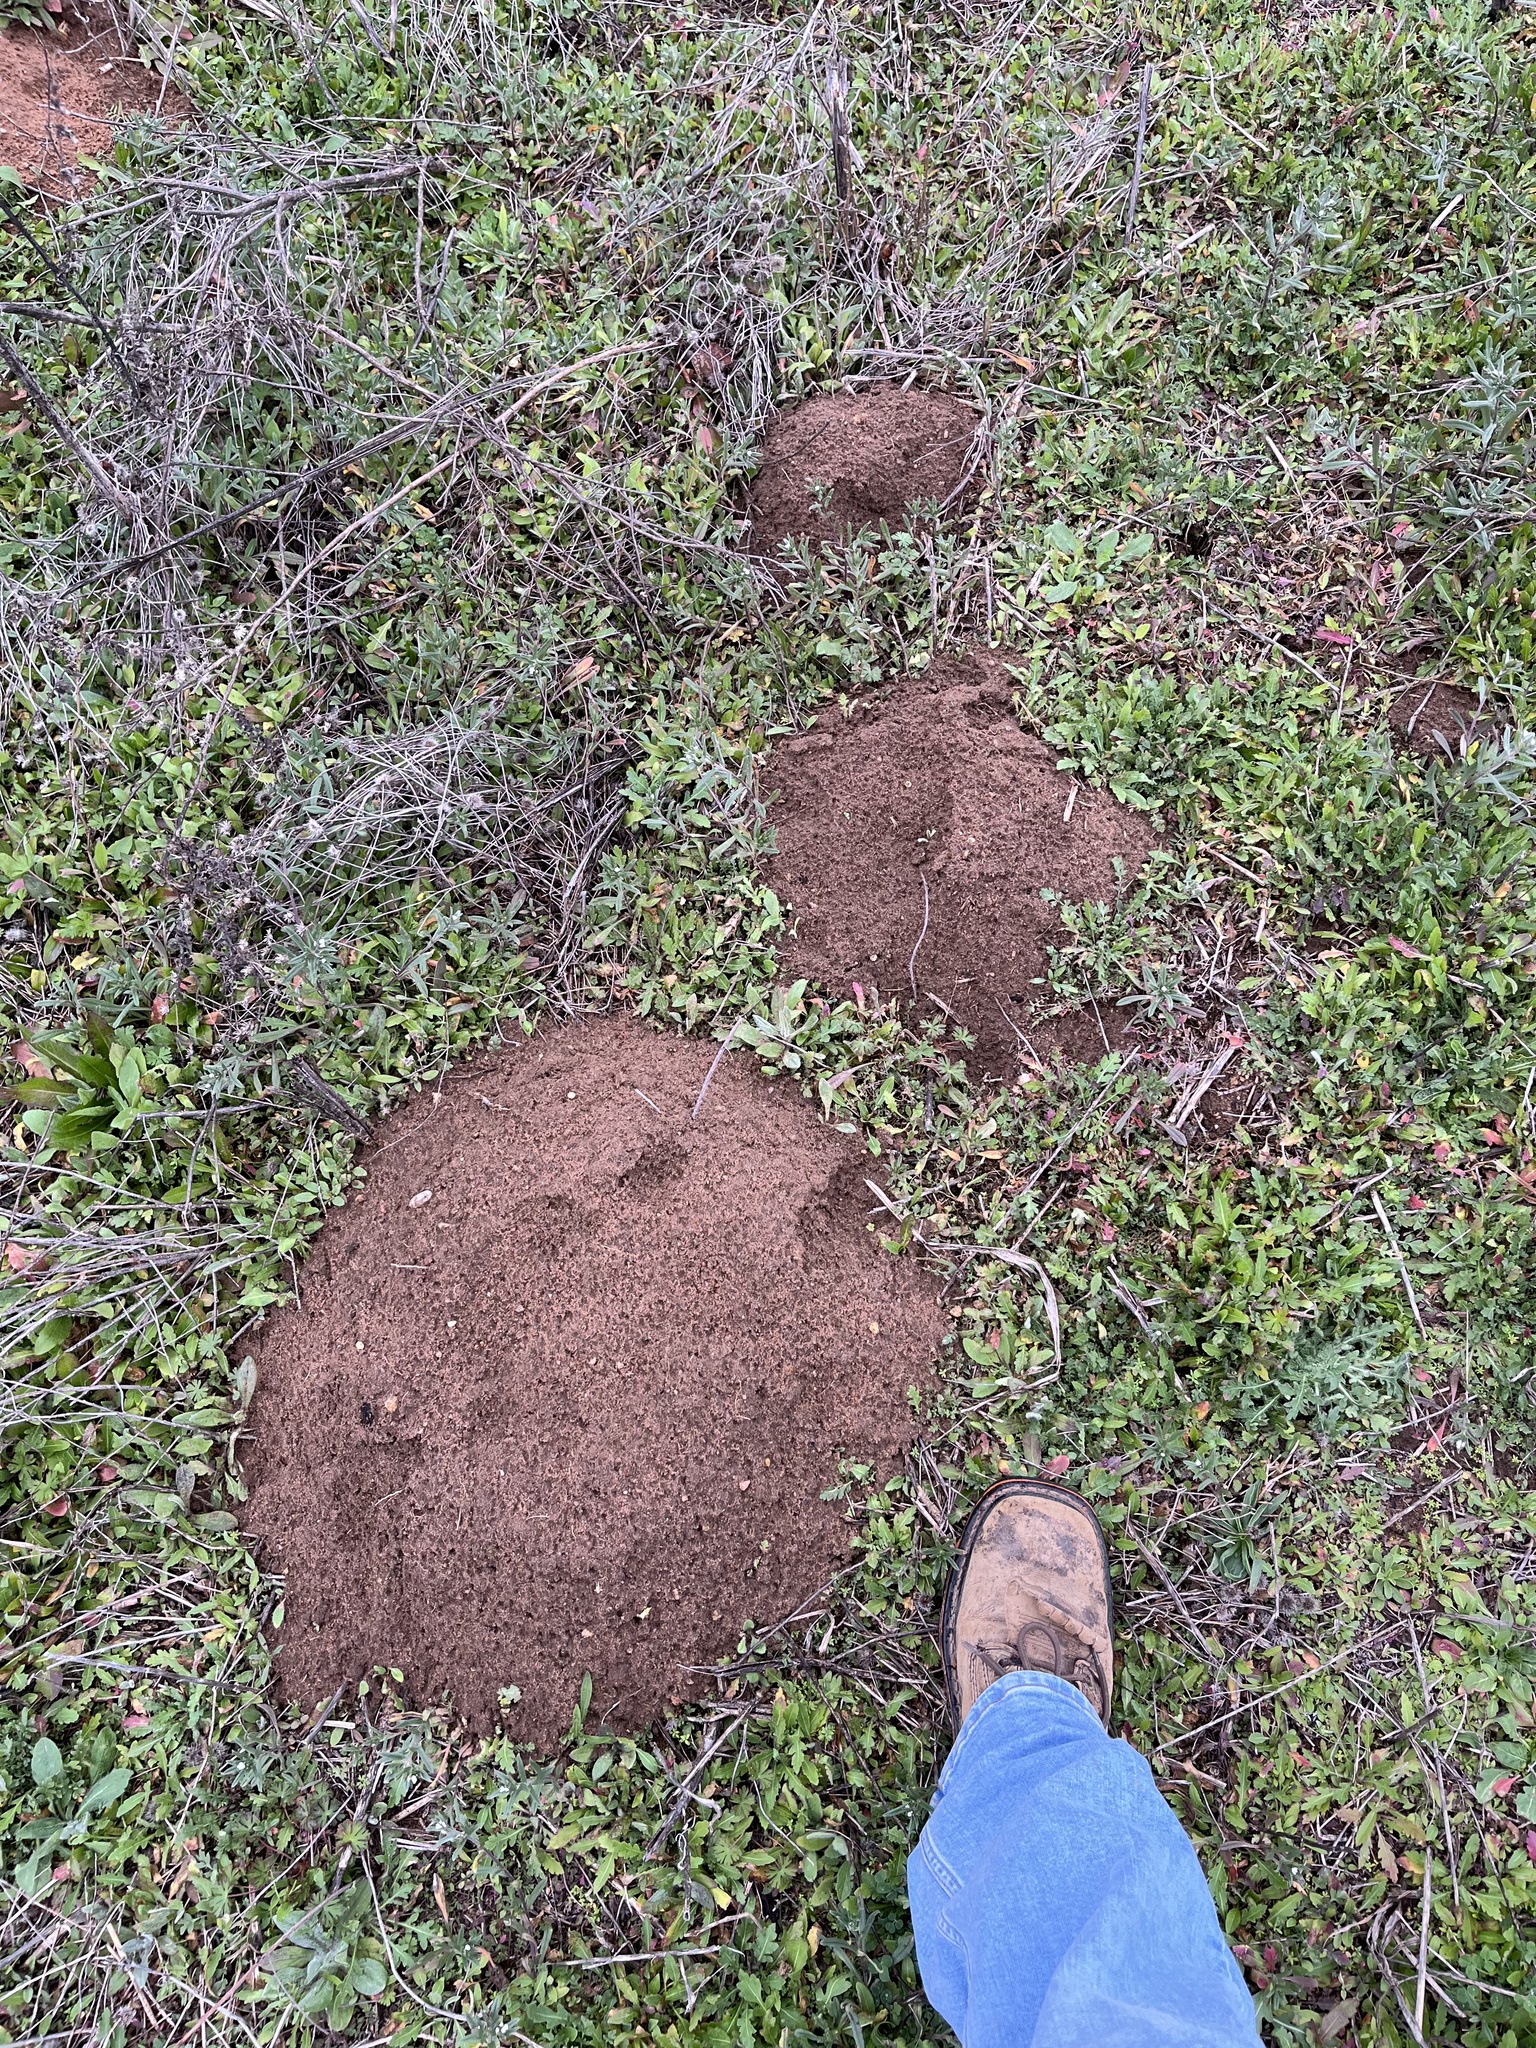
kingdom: Animalia
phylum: Chordata
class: Mammalia
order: Rodentia
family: Geomyidae
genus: Geomys
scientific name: Geomys texensis
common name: Llano pocket gopher
